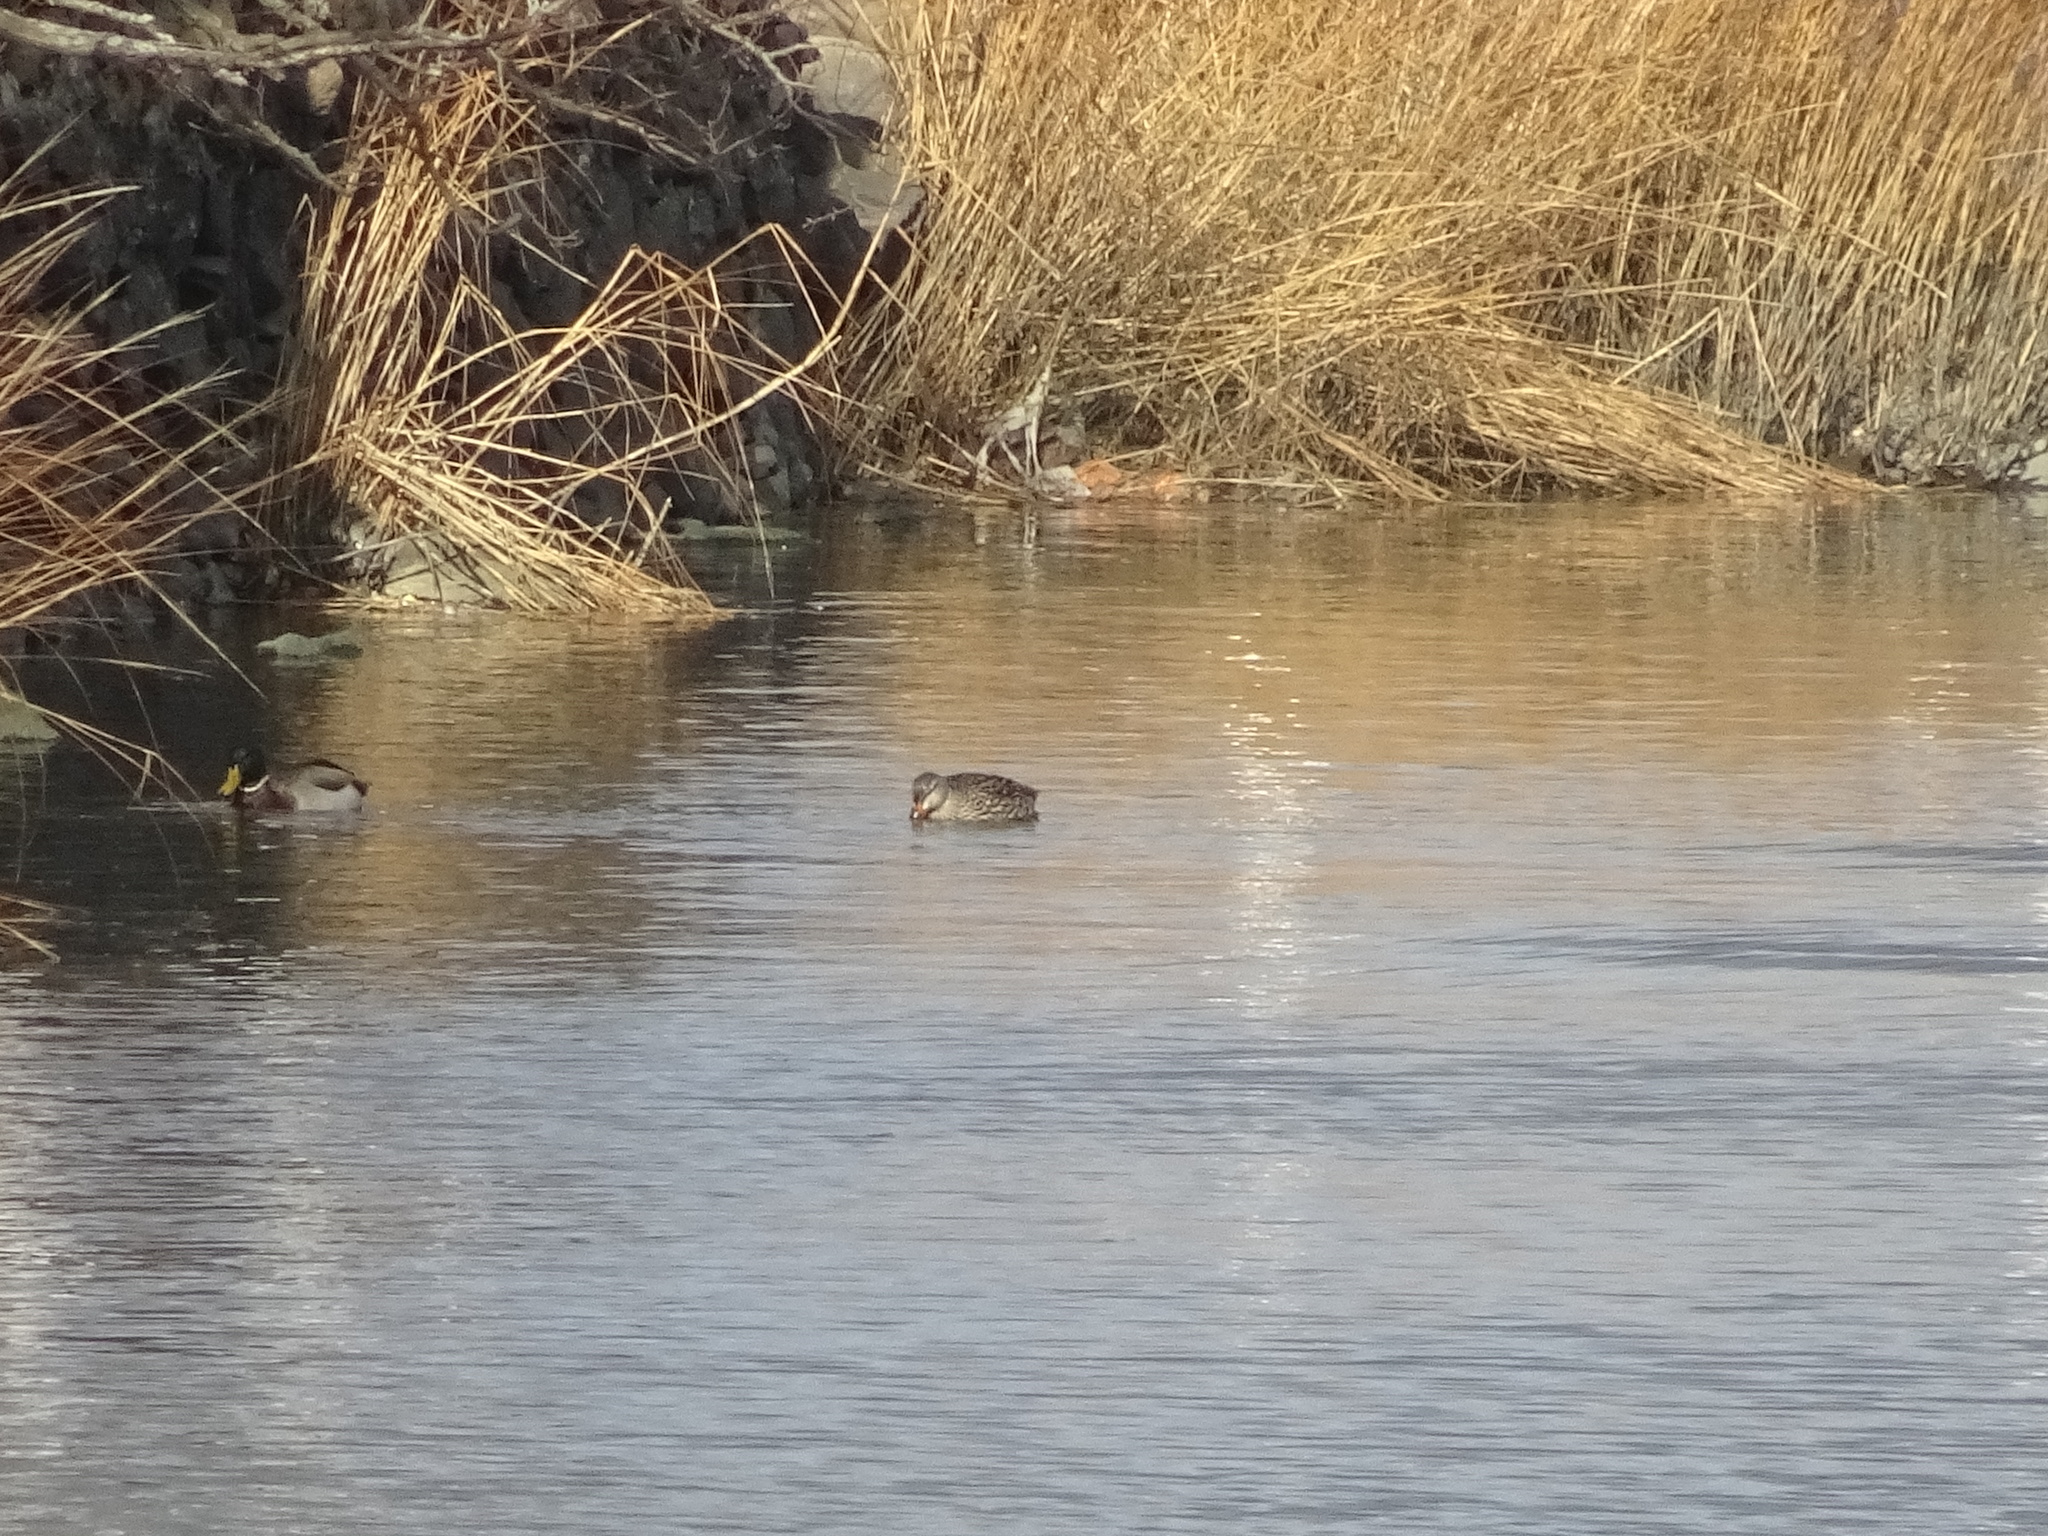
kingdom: Animalia
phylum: Chordata
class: Aves
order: Anseriformes
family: Anatidae
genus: Anas
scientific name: Anas platyrhynchos
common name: Mallard
